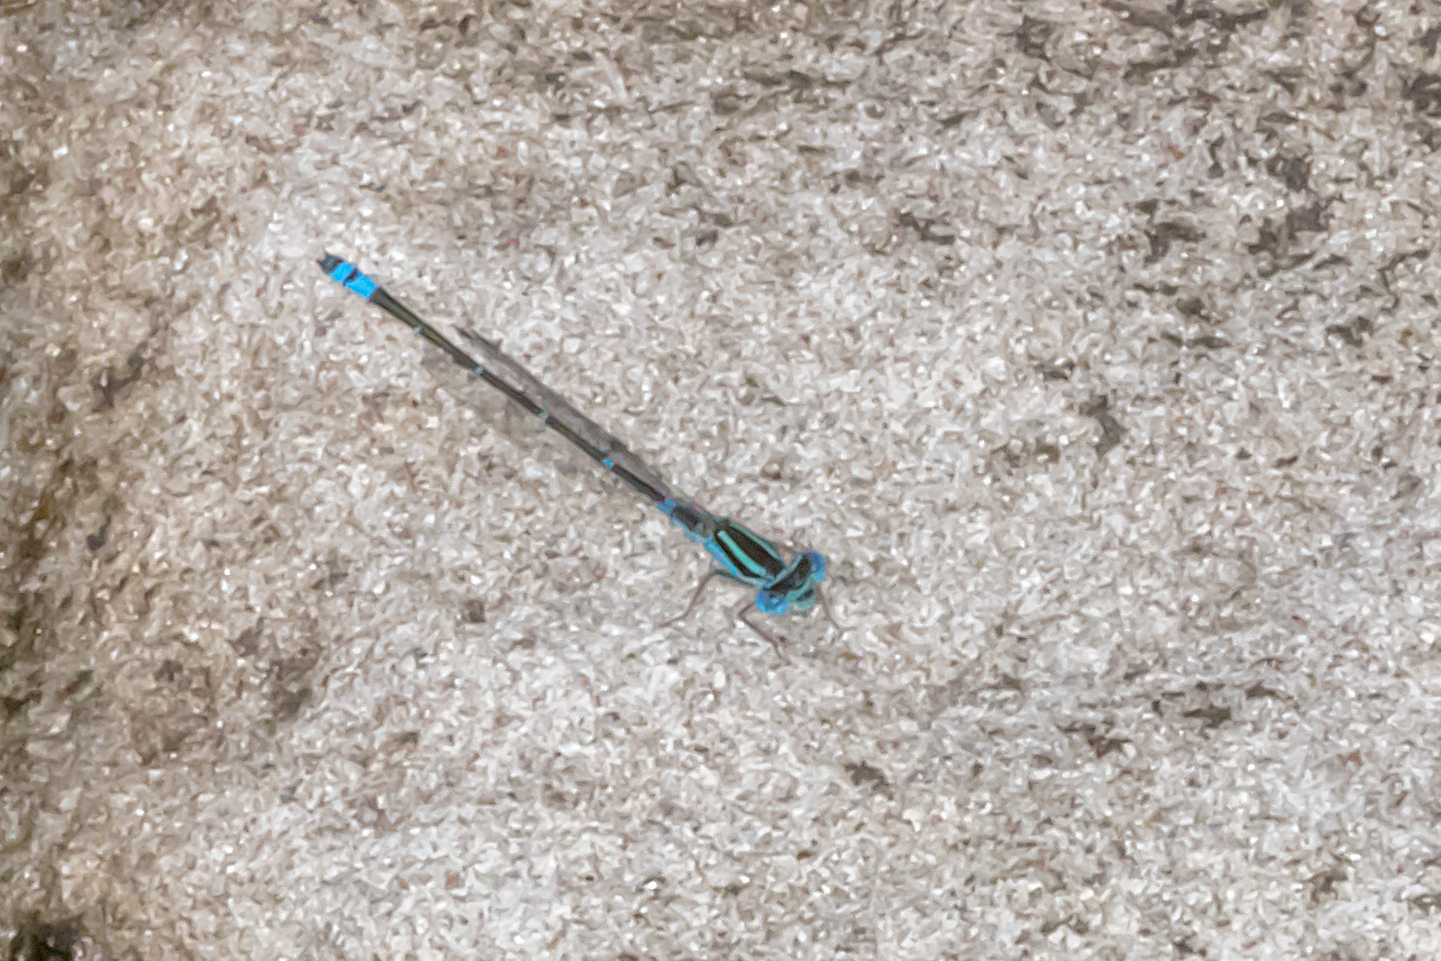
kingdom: Animalia
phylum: Arthropoda
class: Insecta
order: Odonata
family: Coenagrionidae
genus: Austroagrion
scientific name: Austroagrion watsoni
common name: Eastern billabongfly
